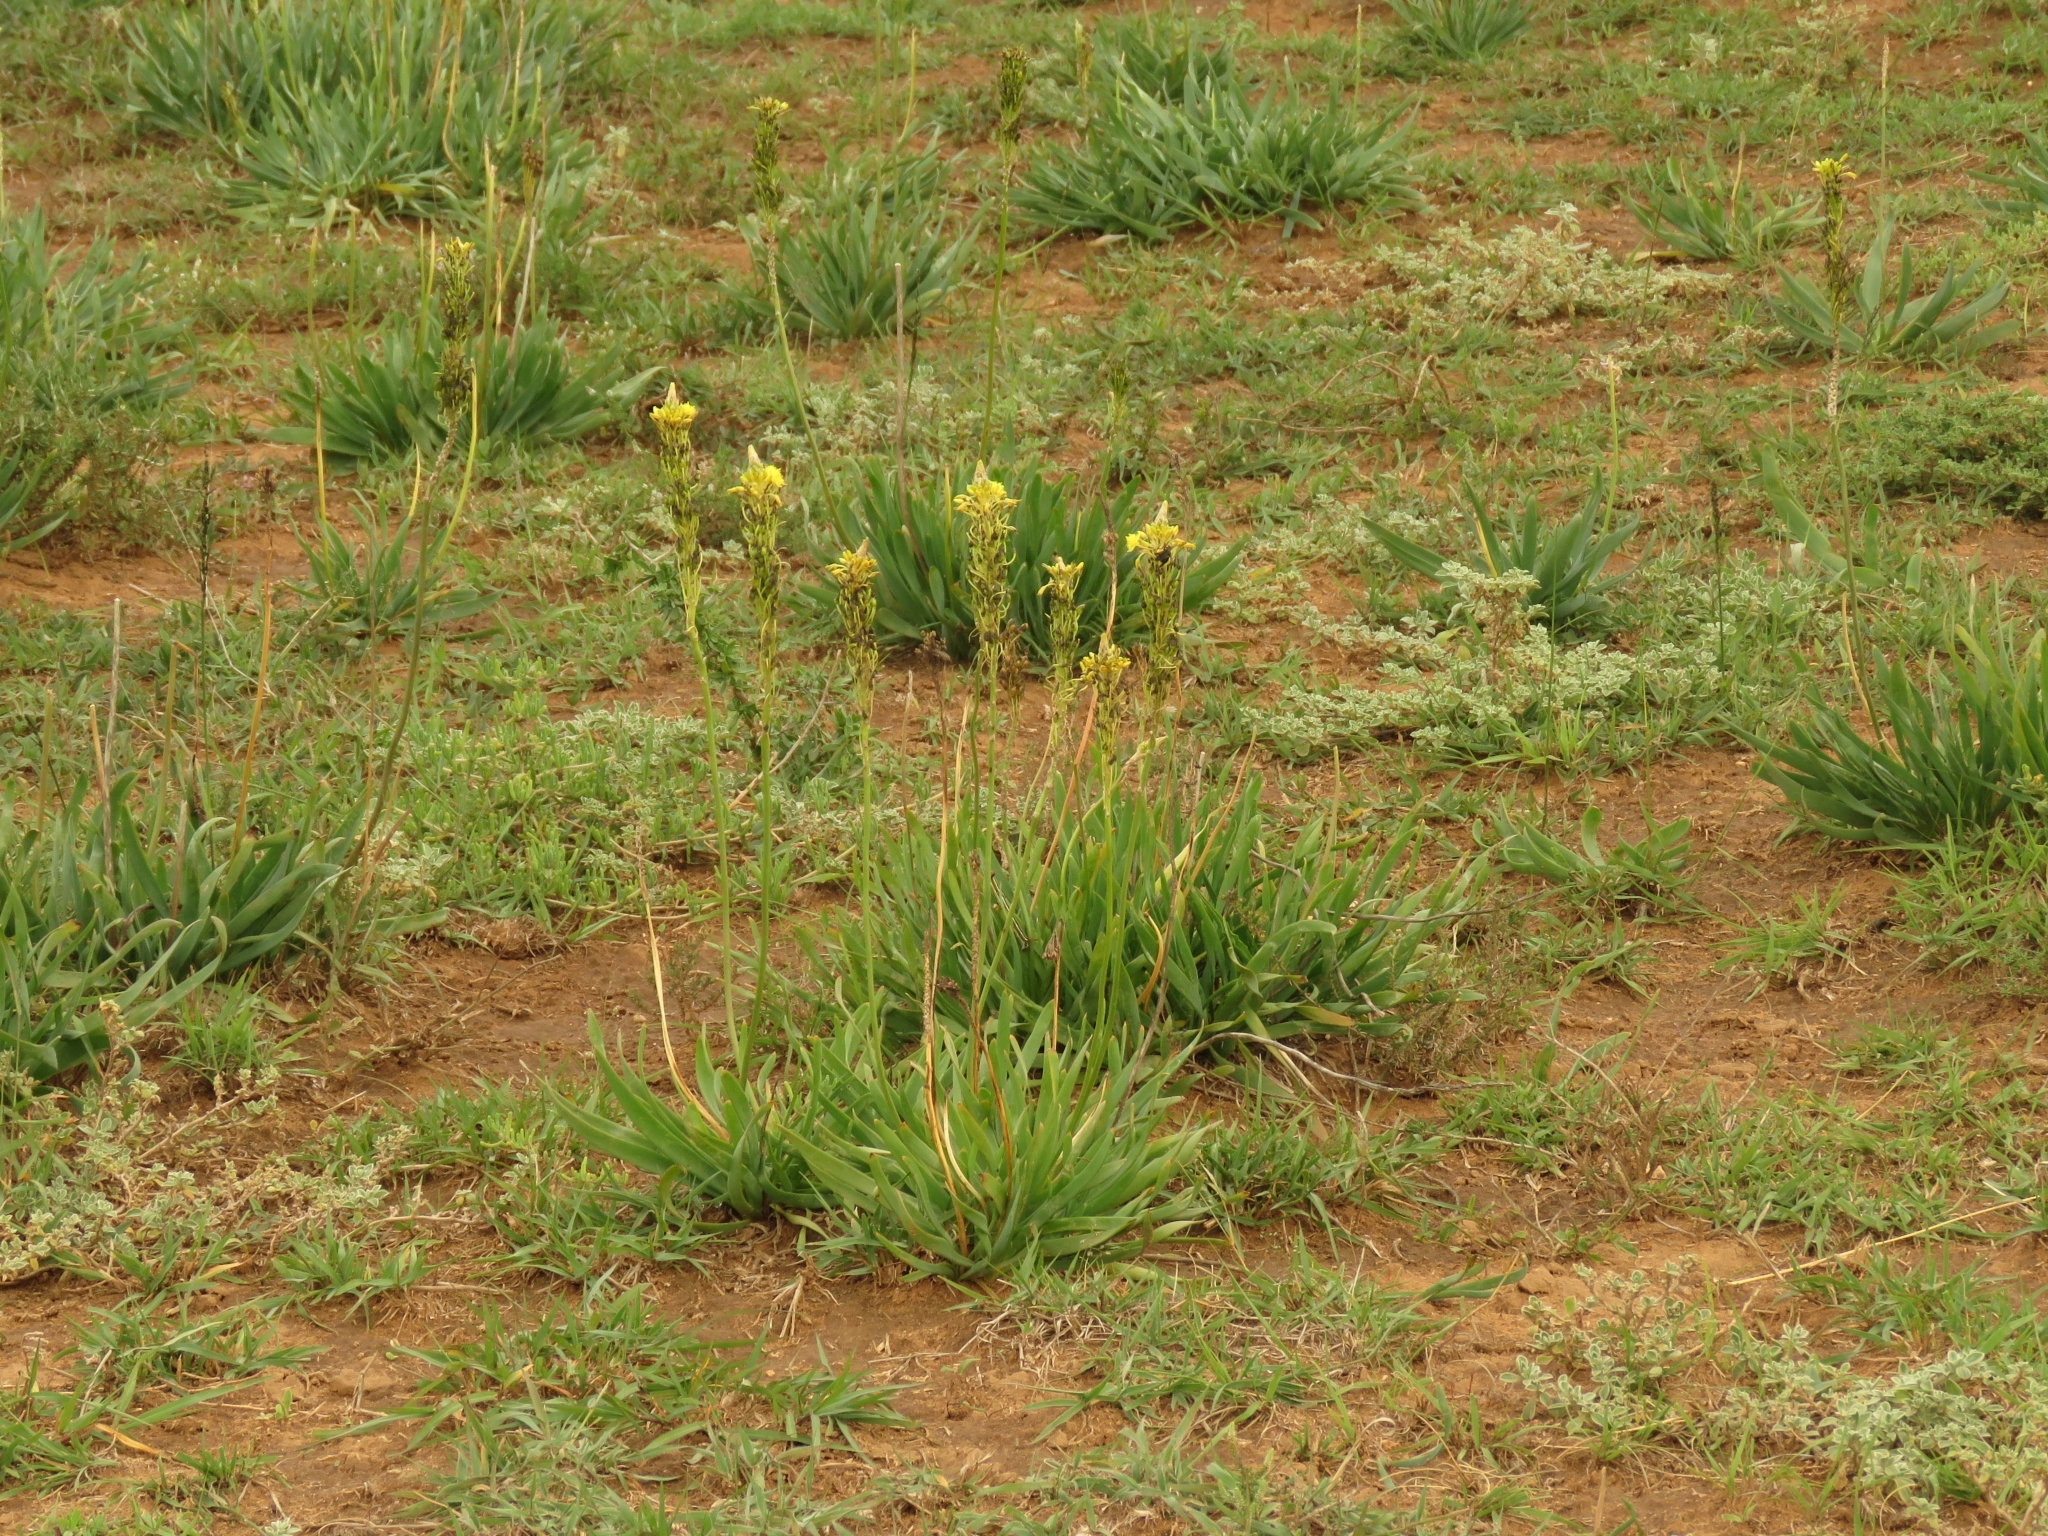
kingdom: Plantae
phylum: Tracheophyta
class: Liliopsida
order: Asparagales
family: Asphodelaceae
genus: Bulbine
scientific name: Bulbine narcissifolia
